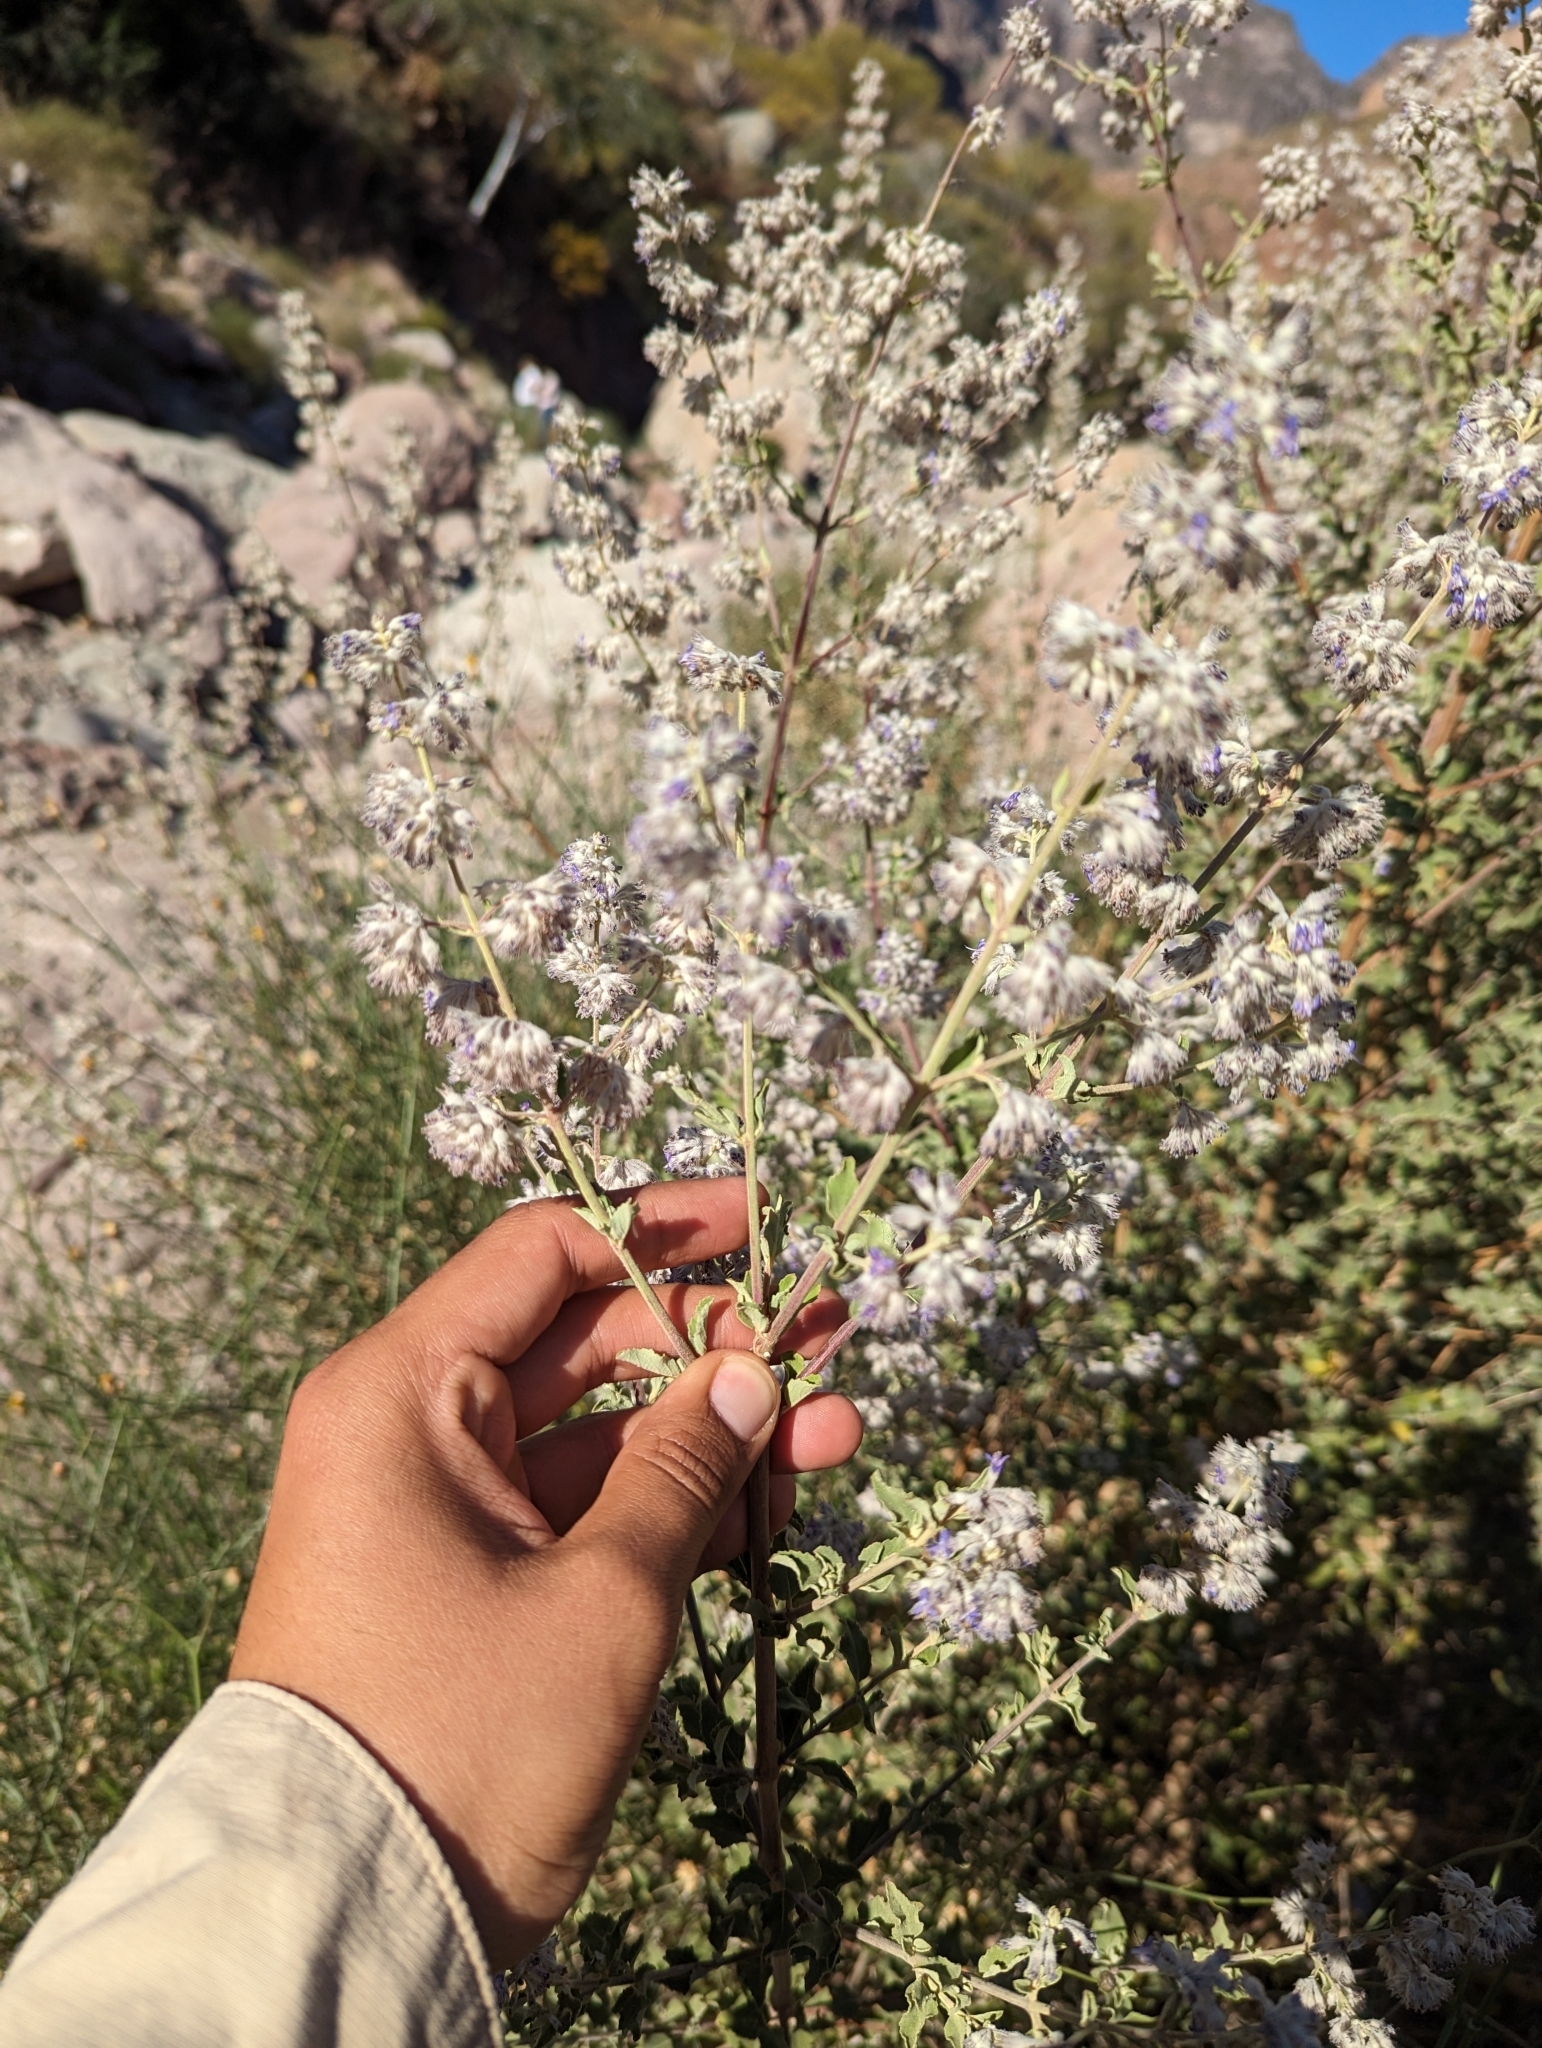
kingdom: Plantae
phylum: Tracheophyta
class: Magnoliopsida
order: Lamiales
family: Lamiaceae
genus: Condea
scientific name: Condea emoryi
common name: Chia
